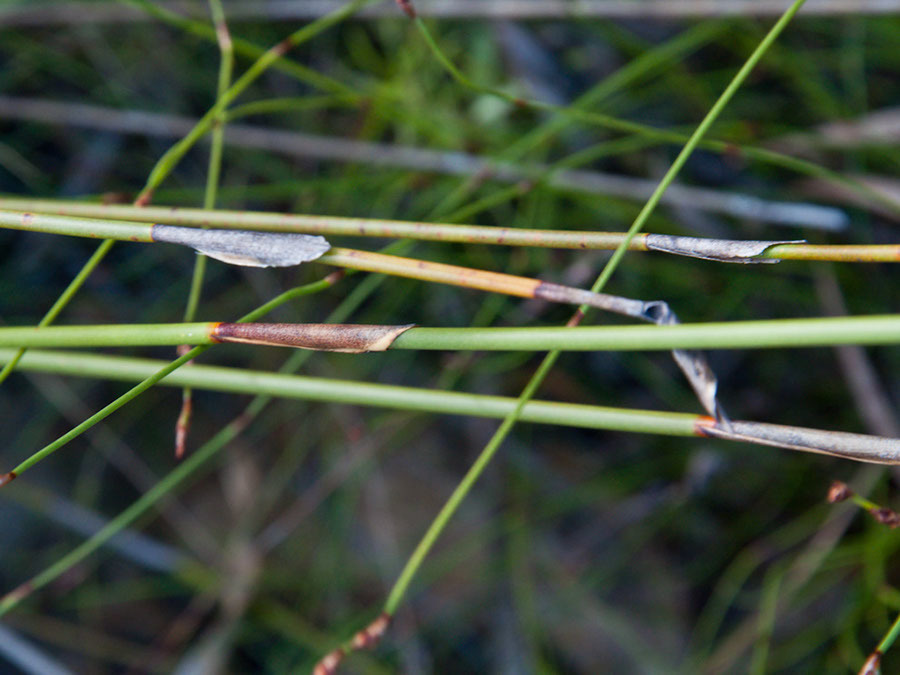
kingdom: Plantae
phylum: Tracheophyta
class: Liliopsida
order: Poales
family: Restionaceae
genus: Hypodiscus
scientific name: Hypodiscus aristatus
